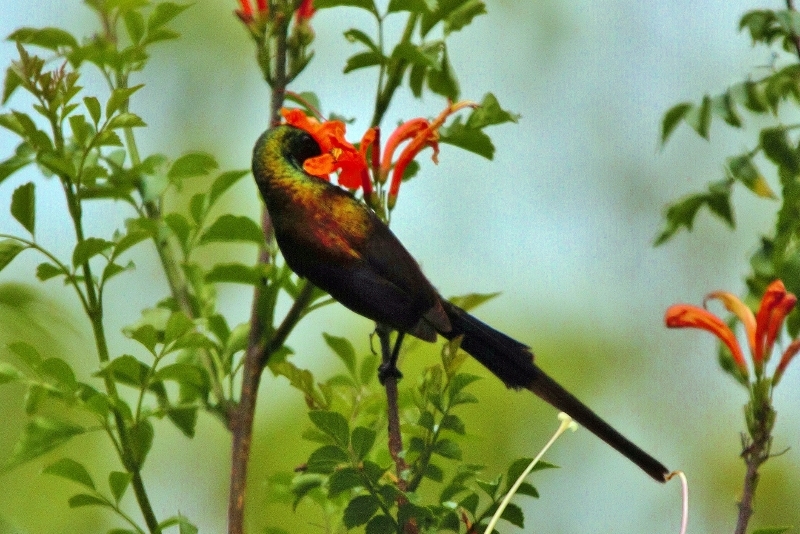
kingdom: Animalia
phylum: Chordata
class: Aves
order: Passeriformes
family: Nectariniidae
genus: Nectarinia
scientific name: Nectarinia kilimensis
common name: Bronzy sunbird
